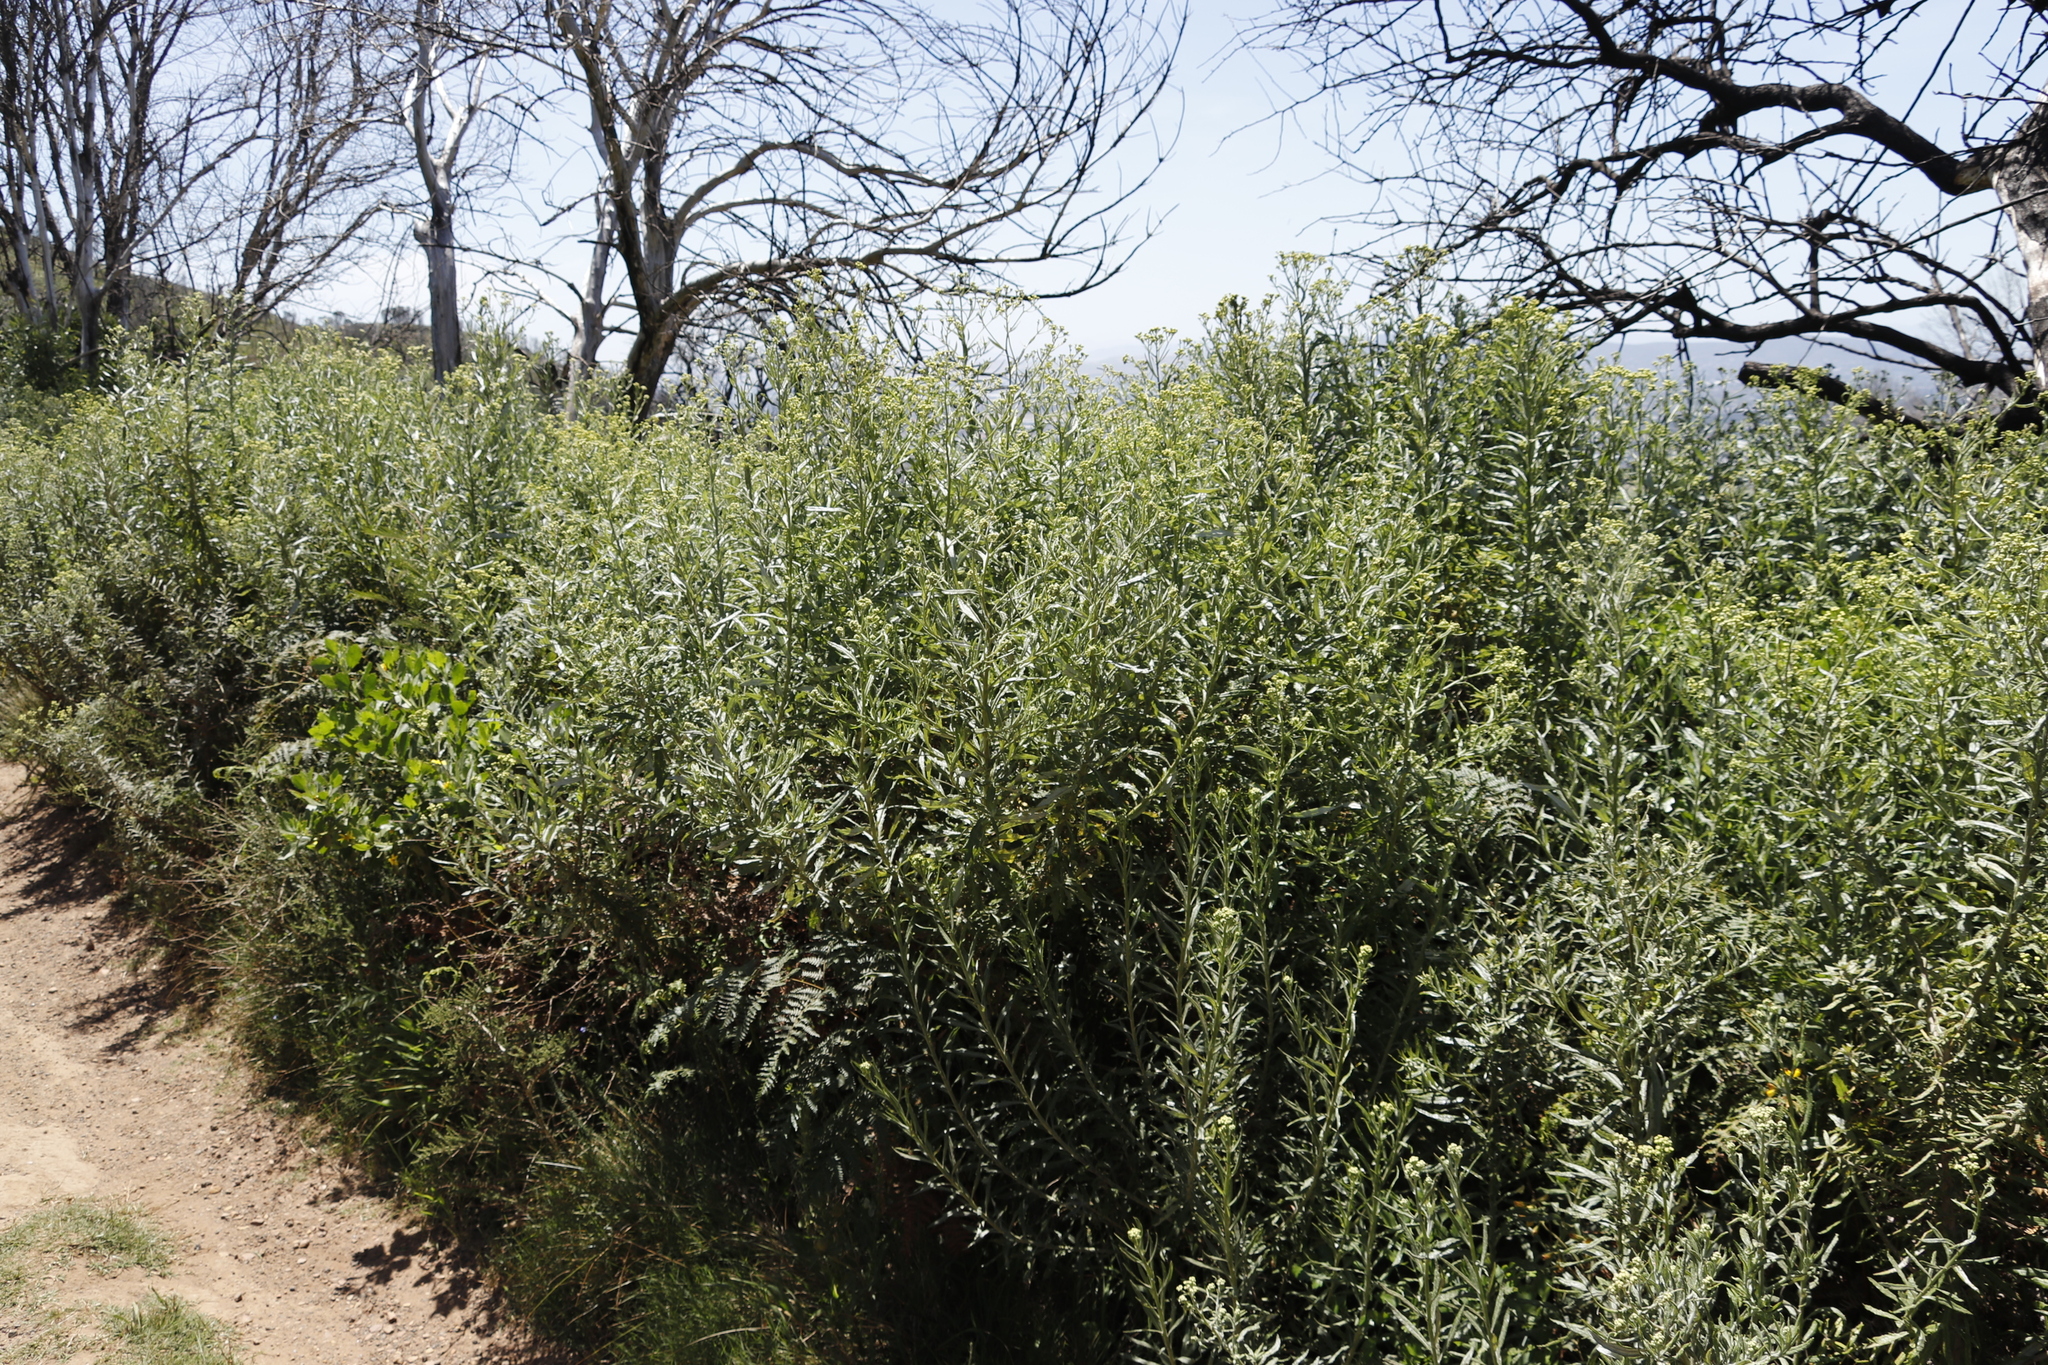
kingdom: Plantae
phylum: Tracheophyta
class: Magnoliopsida
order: Asterales
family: Asteraceae
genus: Senecio
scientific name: Senecio pterophorus
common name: Shoddy ragwort
